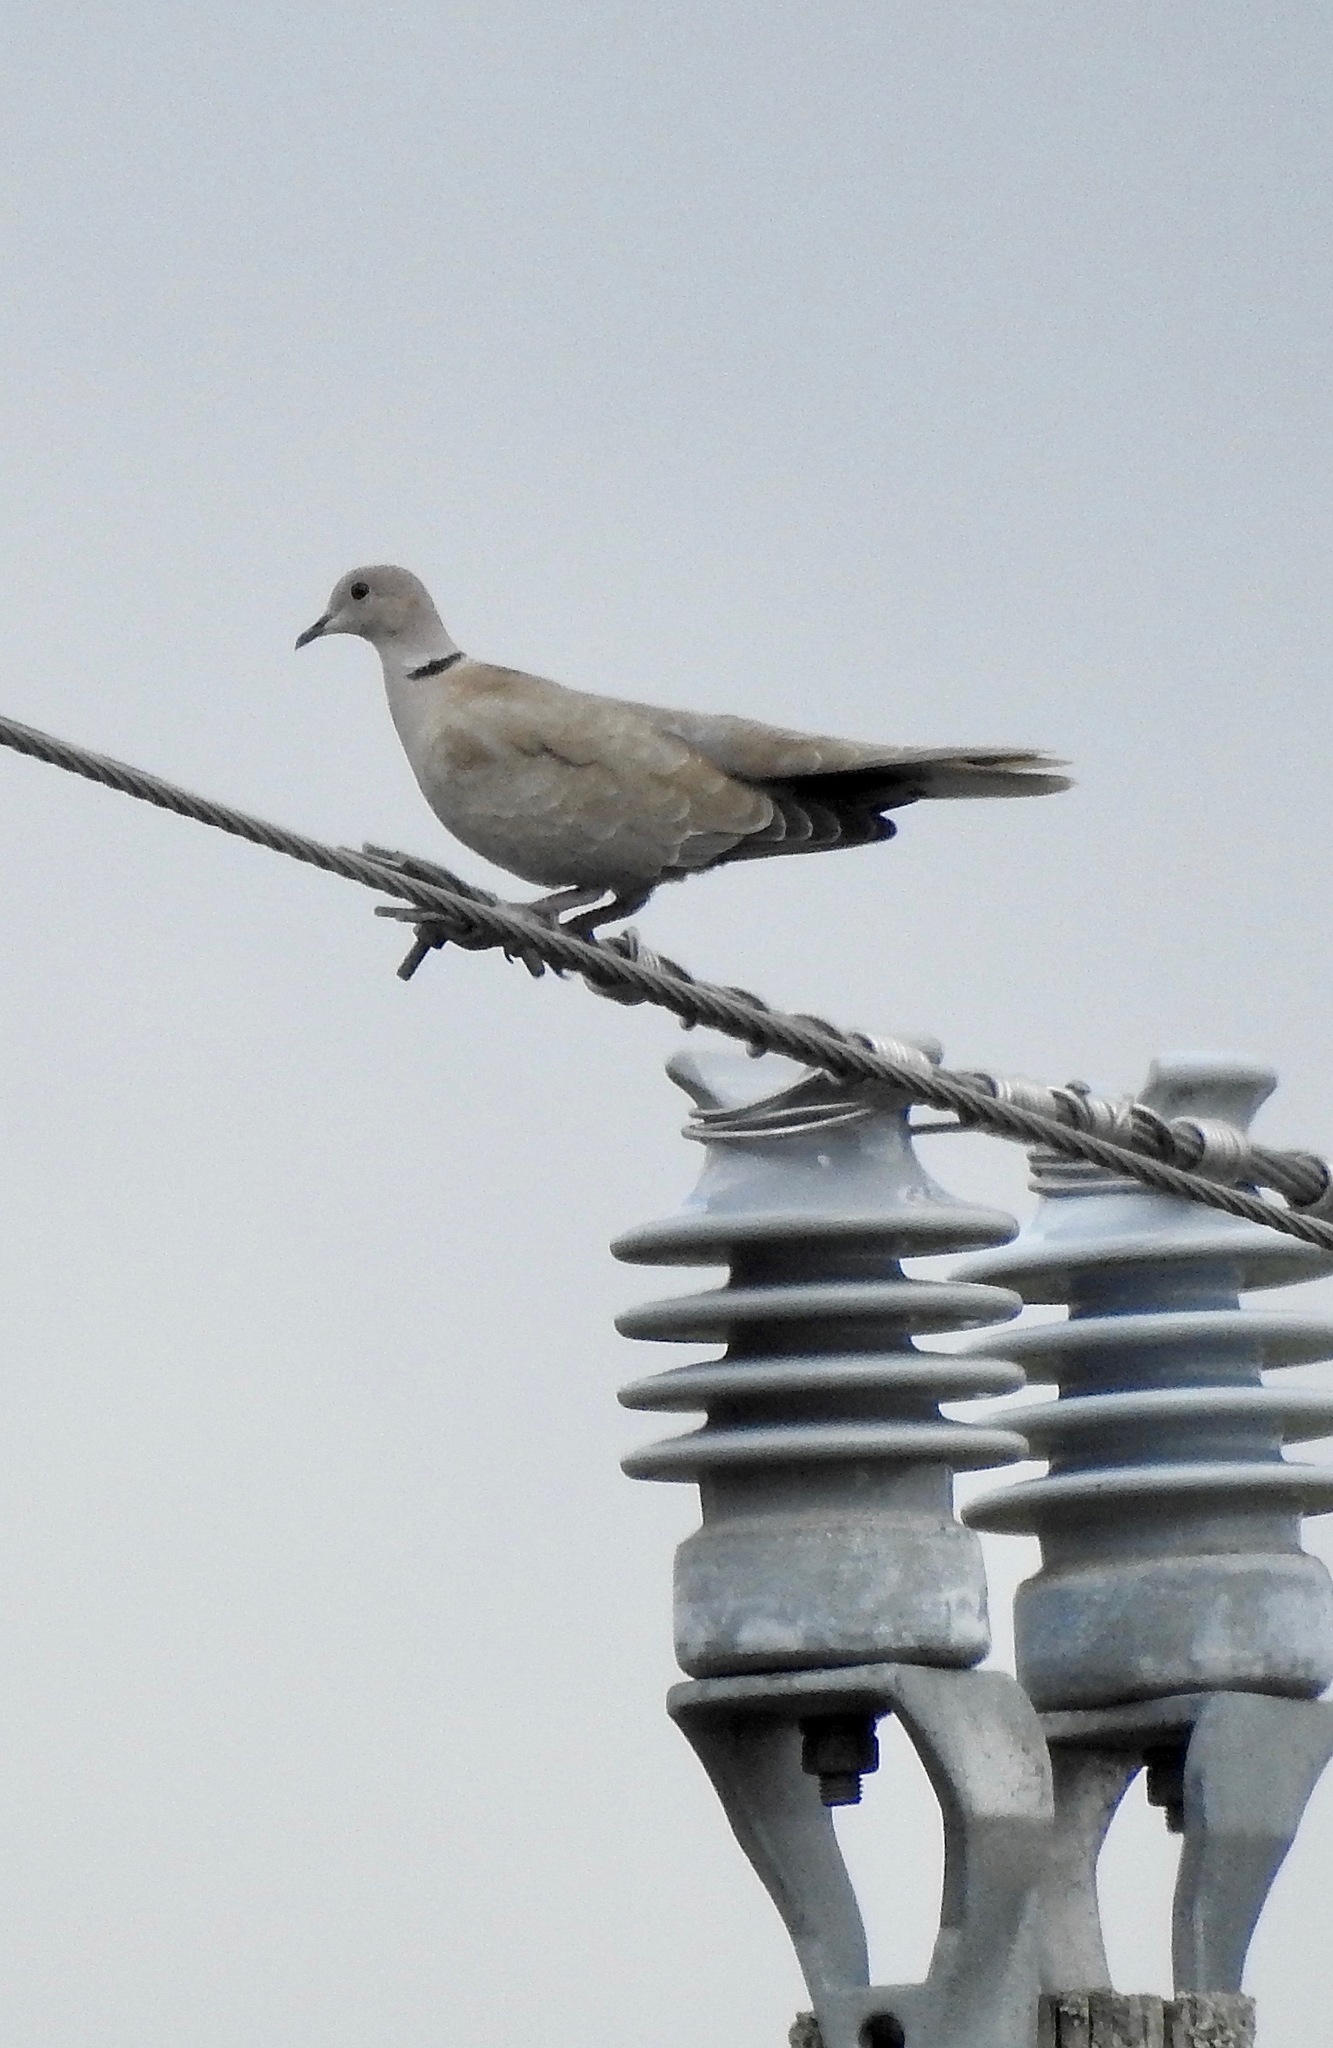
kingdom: Animalia
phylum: Chordata
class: Aves
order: Columbiformes
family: Columbidae
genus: Streptopelia
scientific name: Streptopelia decaocto
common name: Eurasian collared dove
